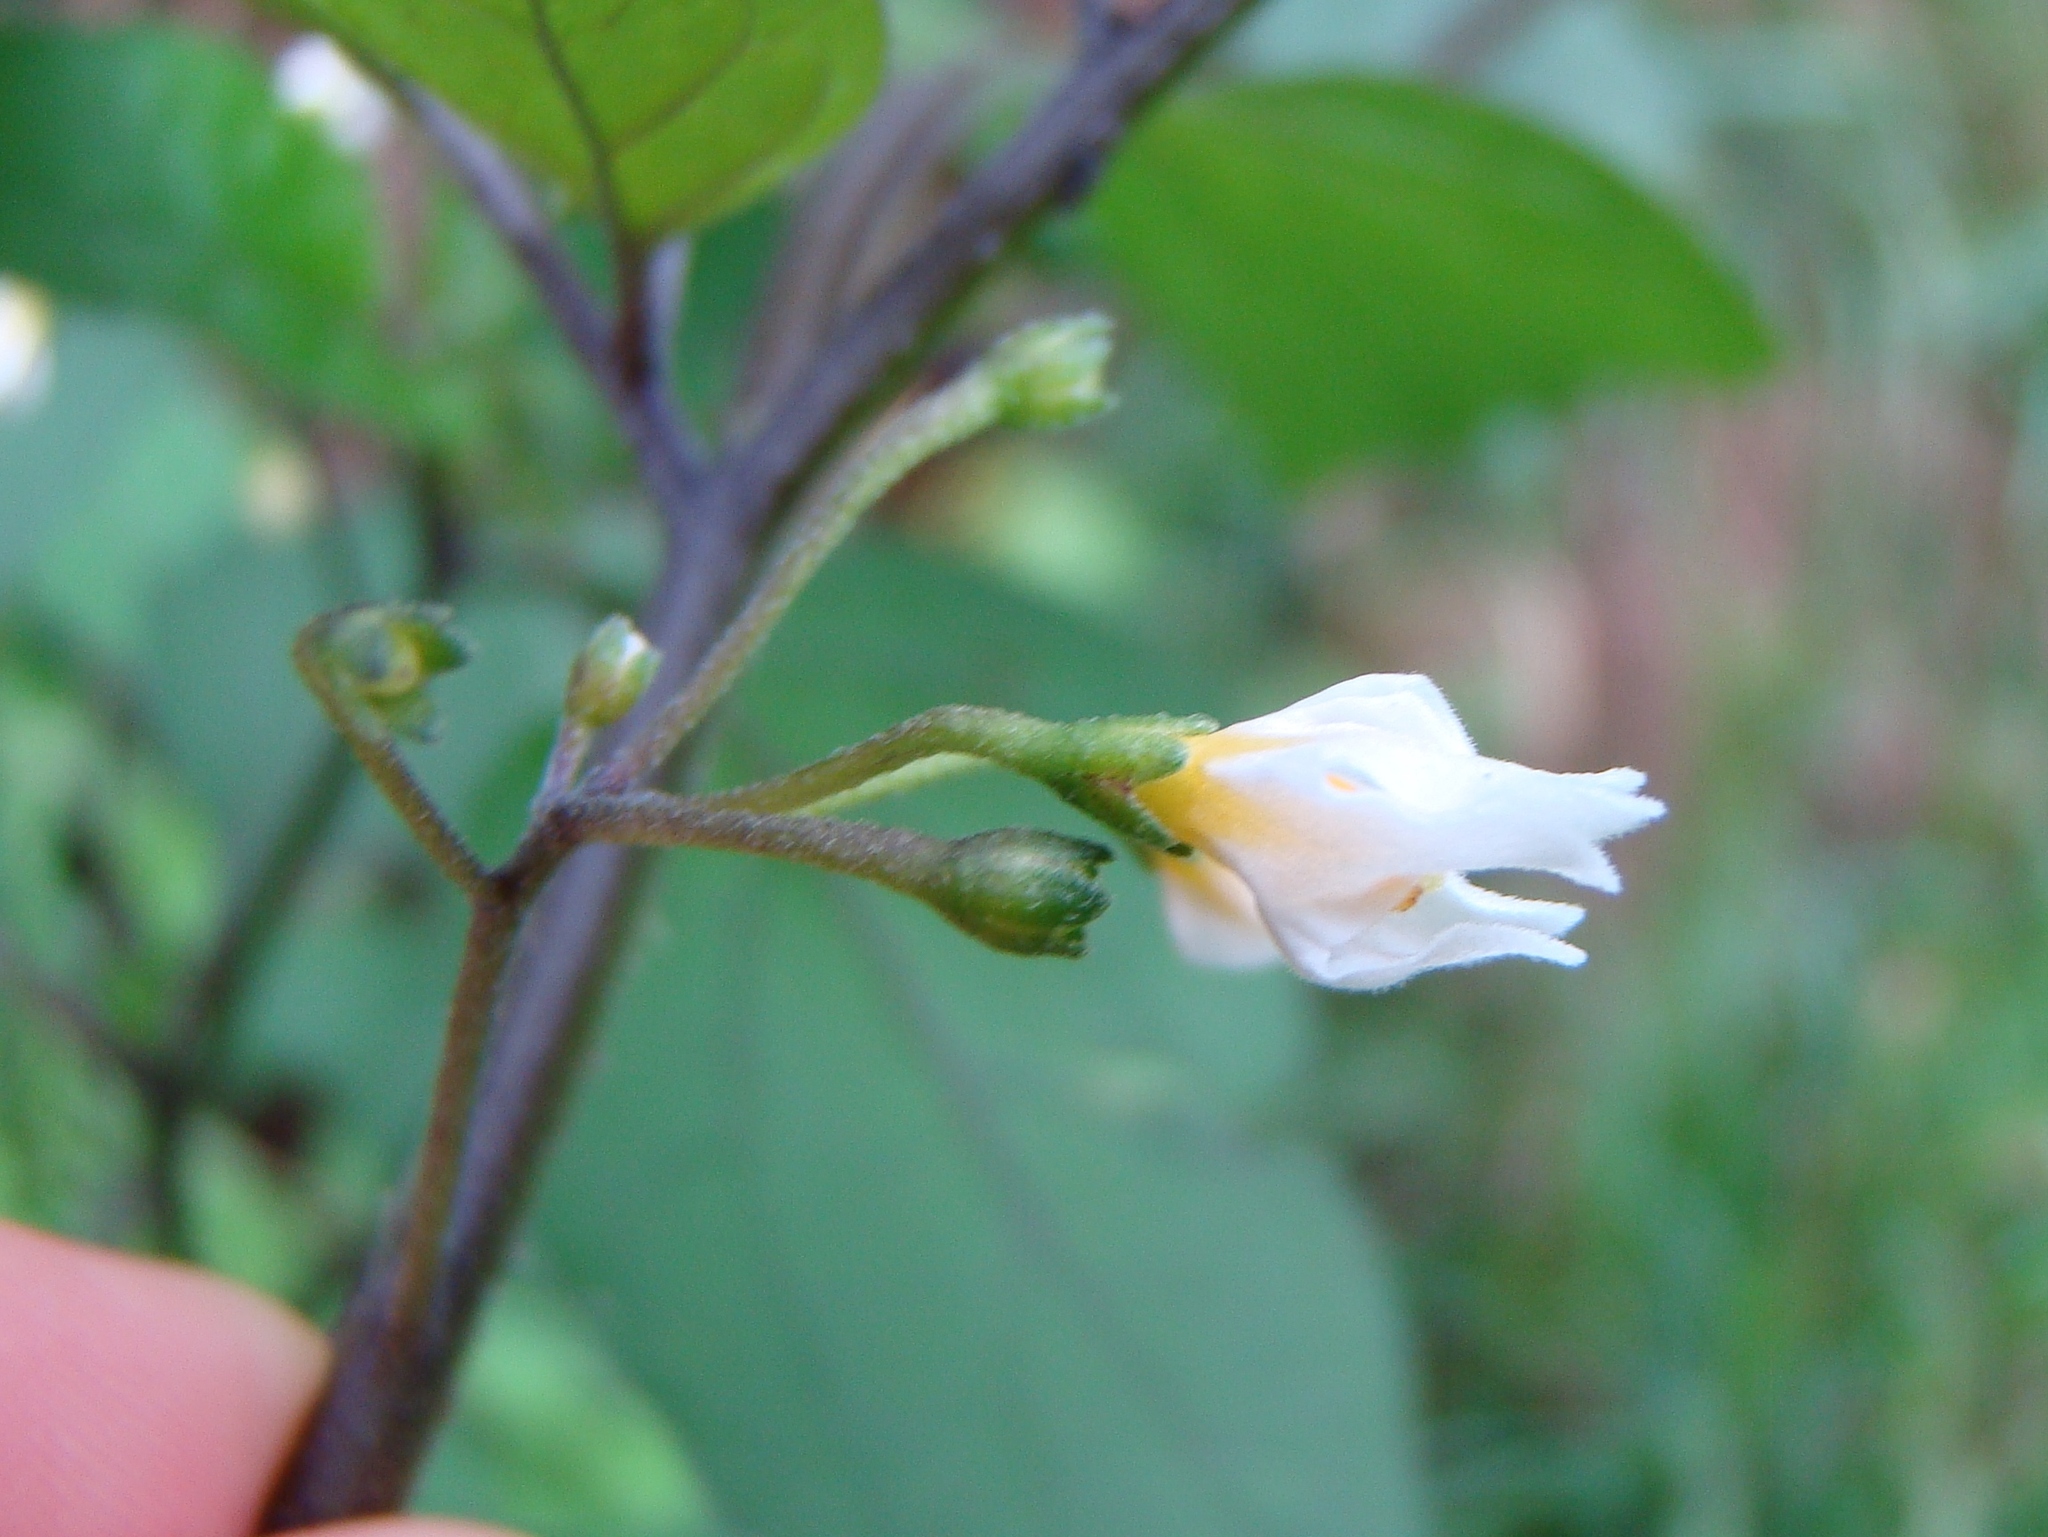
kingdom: Plantae
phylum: Tracheophyta
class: Magnoliopsida
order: Solanales
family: Solanaceae
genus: Solanum
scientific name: Solanum nigrum
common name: Black nightshade
